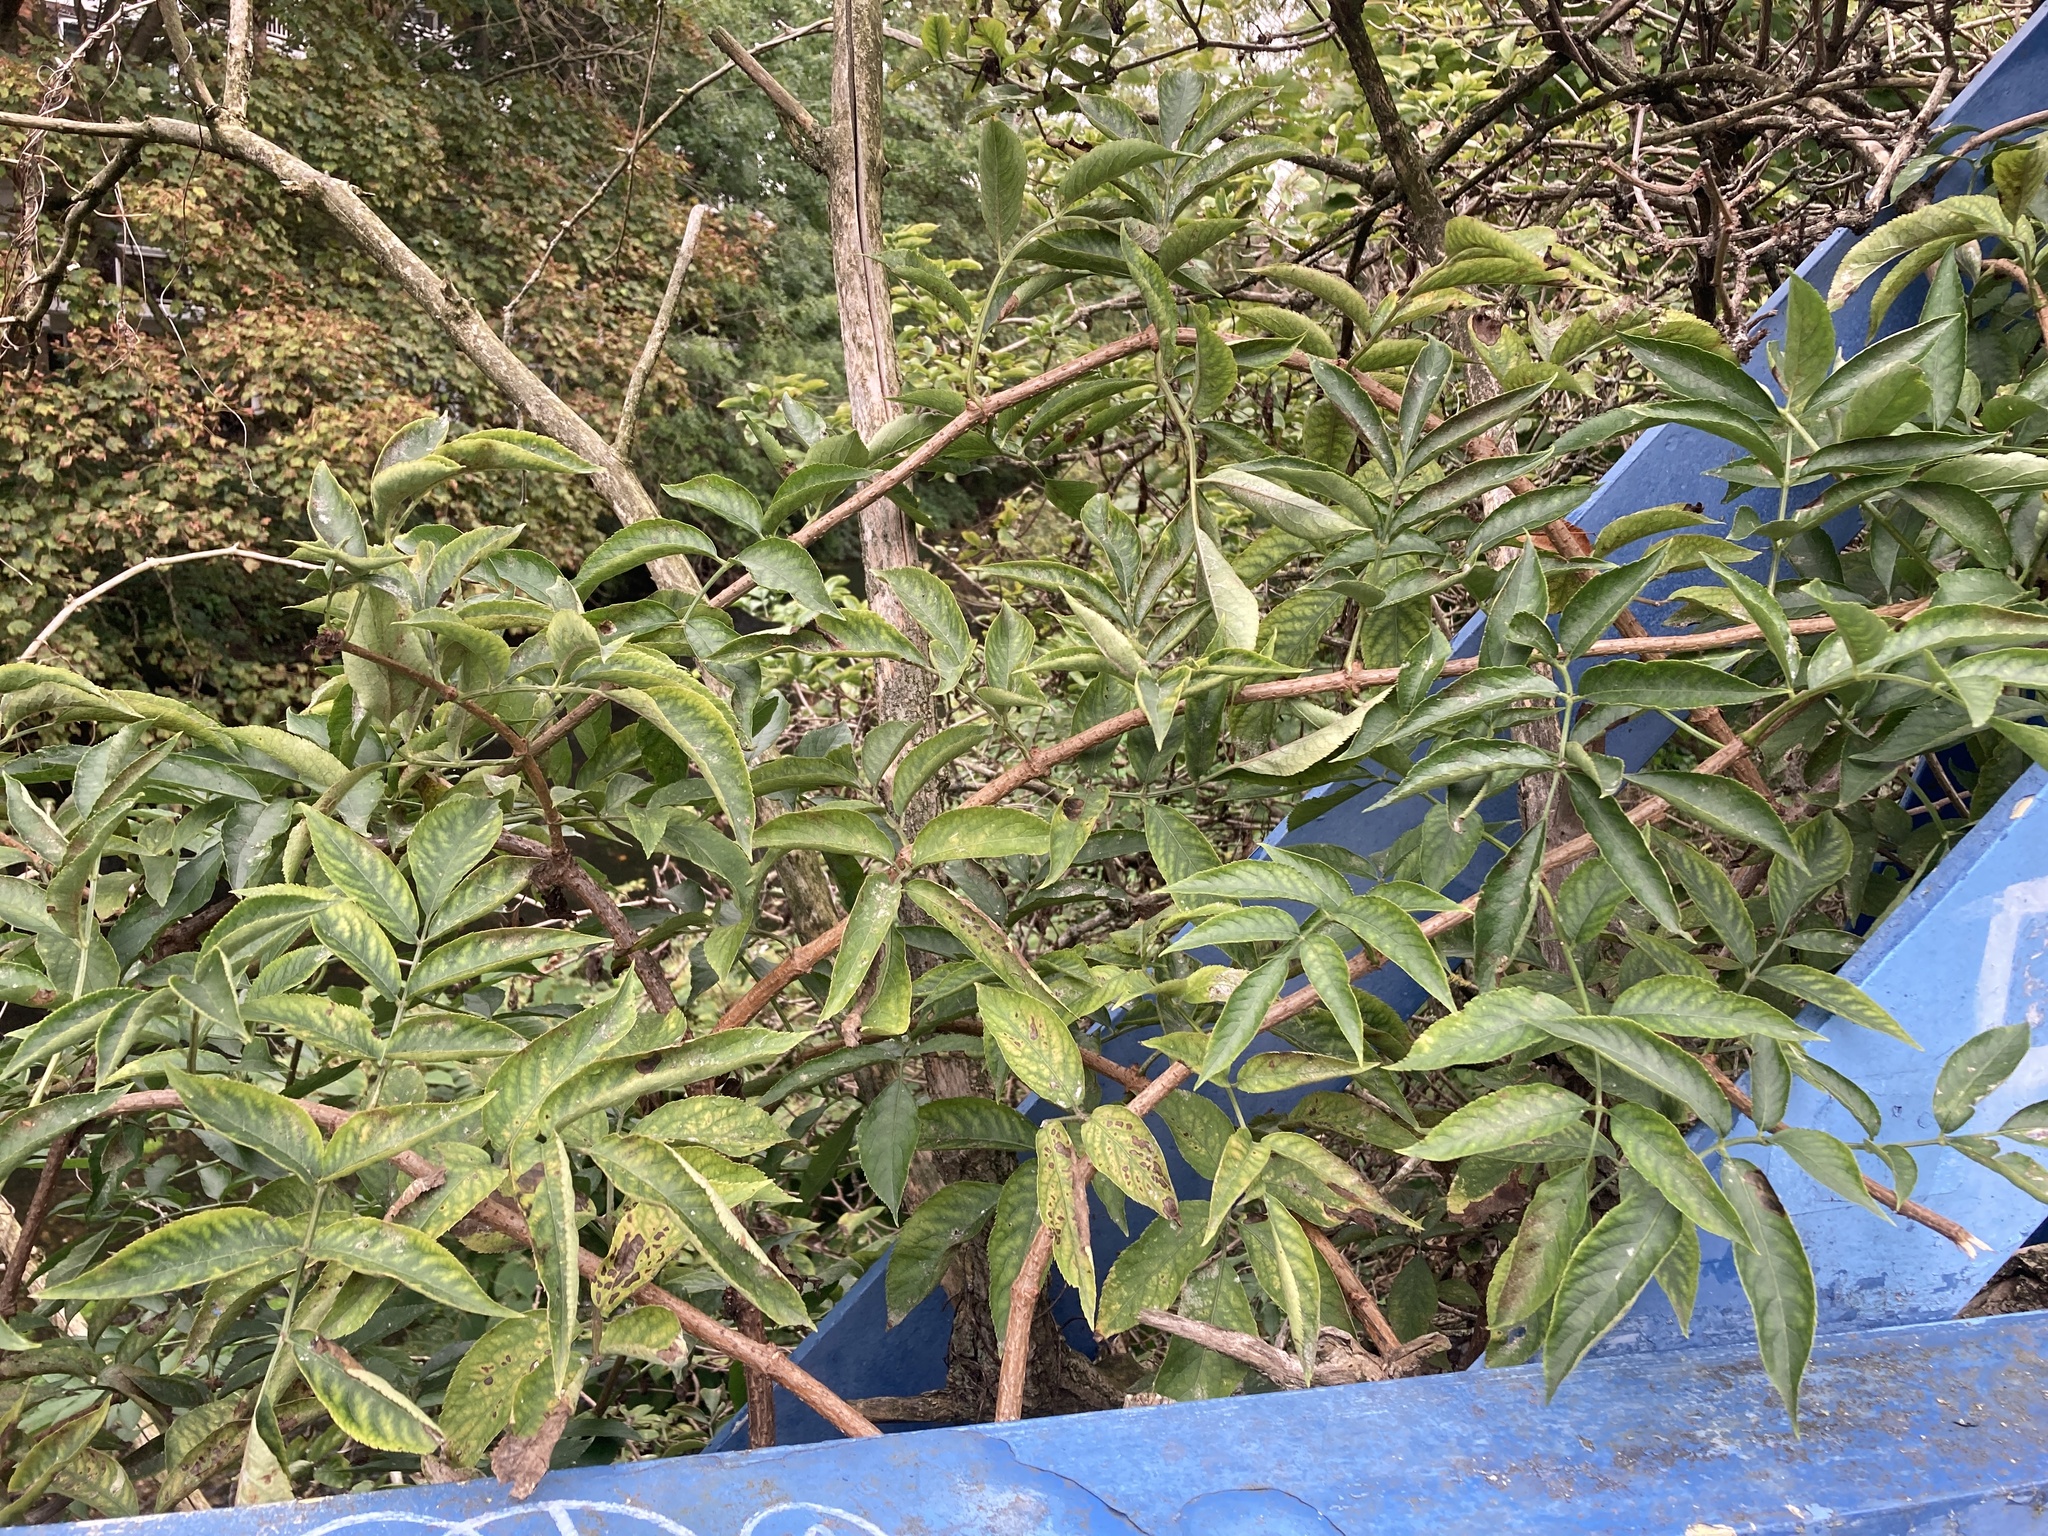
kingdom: Plantae
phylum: Tracheophyta
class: Magnoliopsida
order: Dipsacales
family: Viburnaceae
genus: Sambucus
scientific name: Sambucus nigra
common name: Elder
